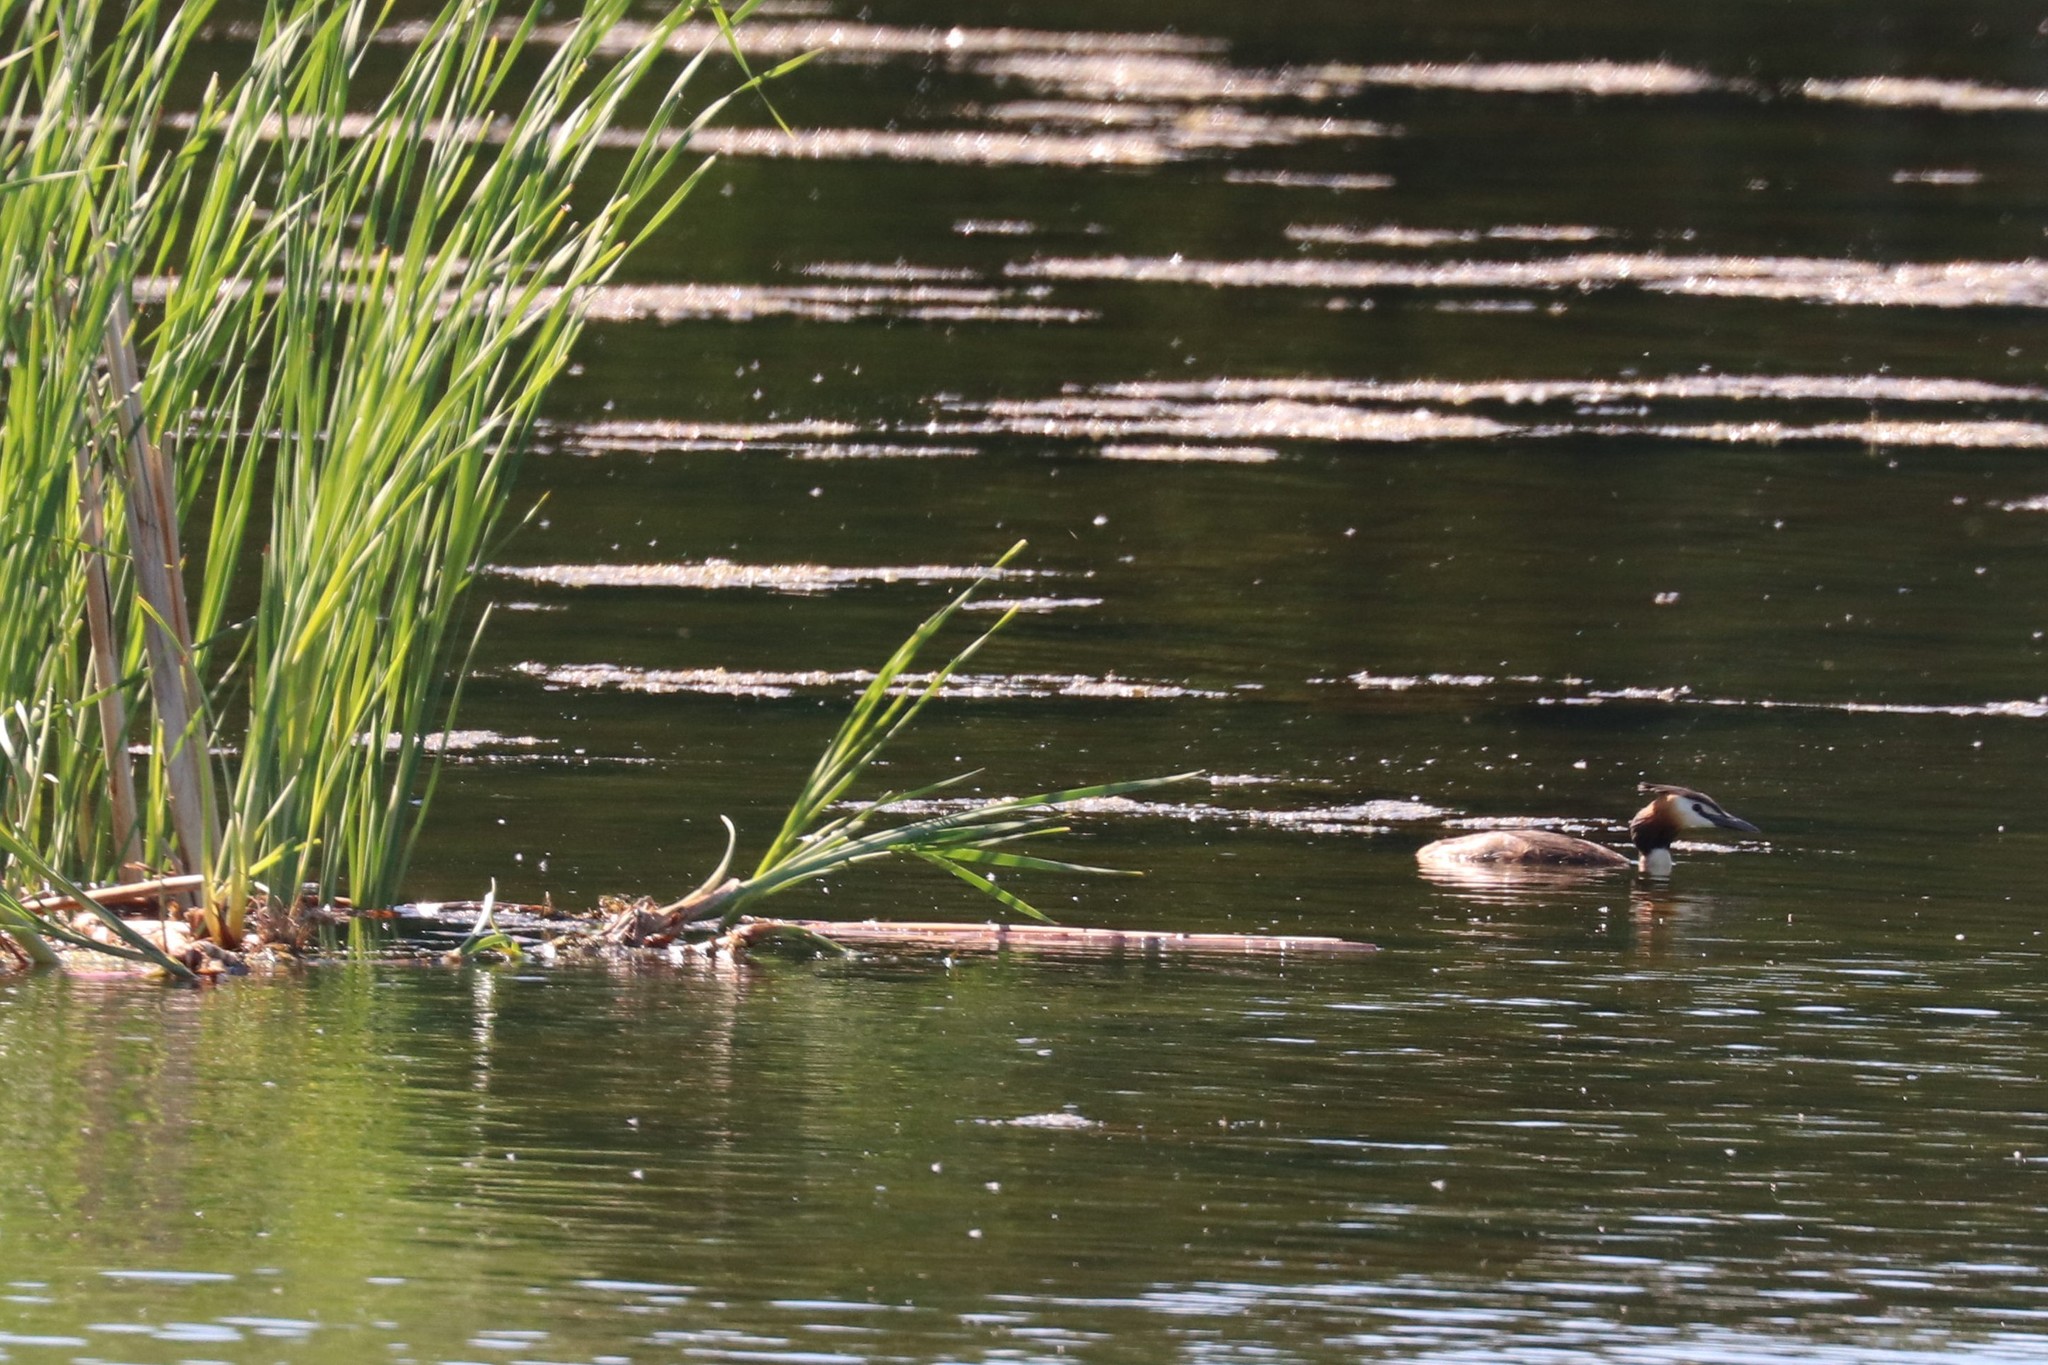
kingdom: Animalia
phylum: Chordata
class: Aves
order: Podicipediformes
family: Podicipedidae
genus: Podiceps
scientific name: Podiceps cristatus
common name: Great crested grebe
